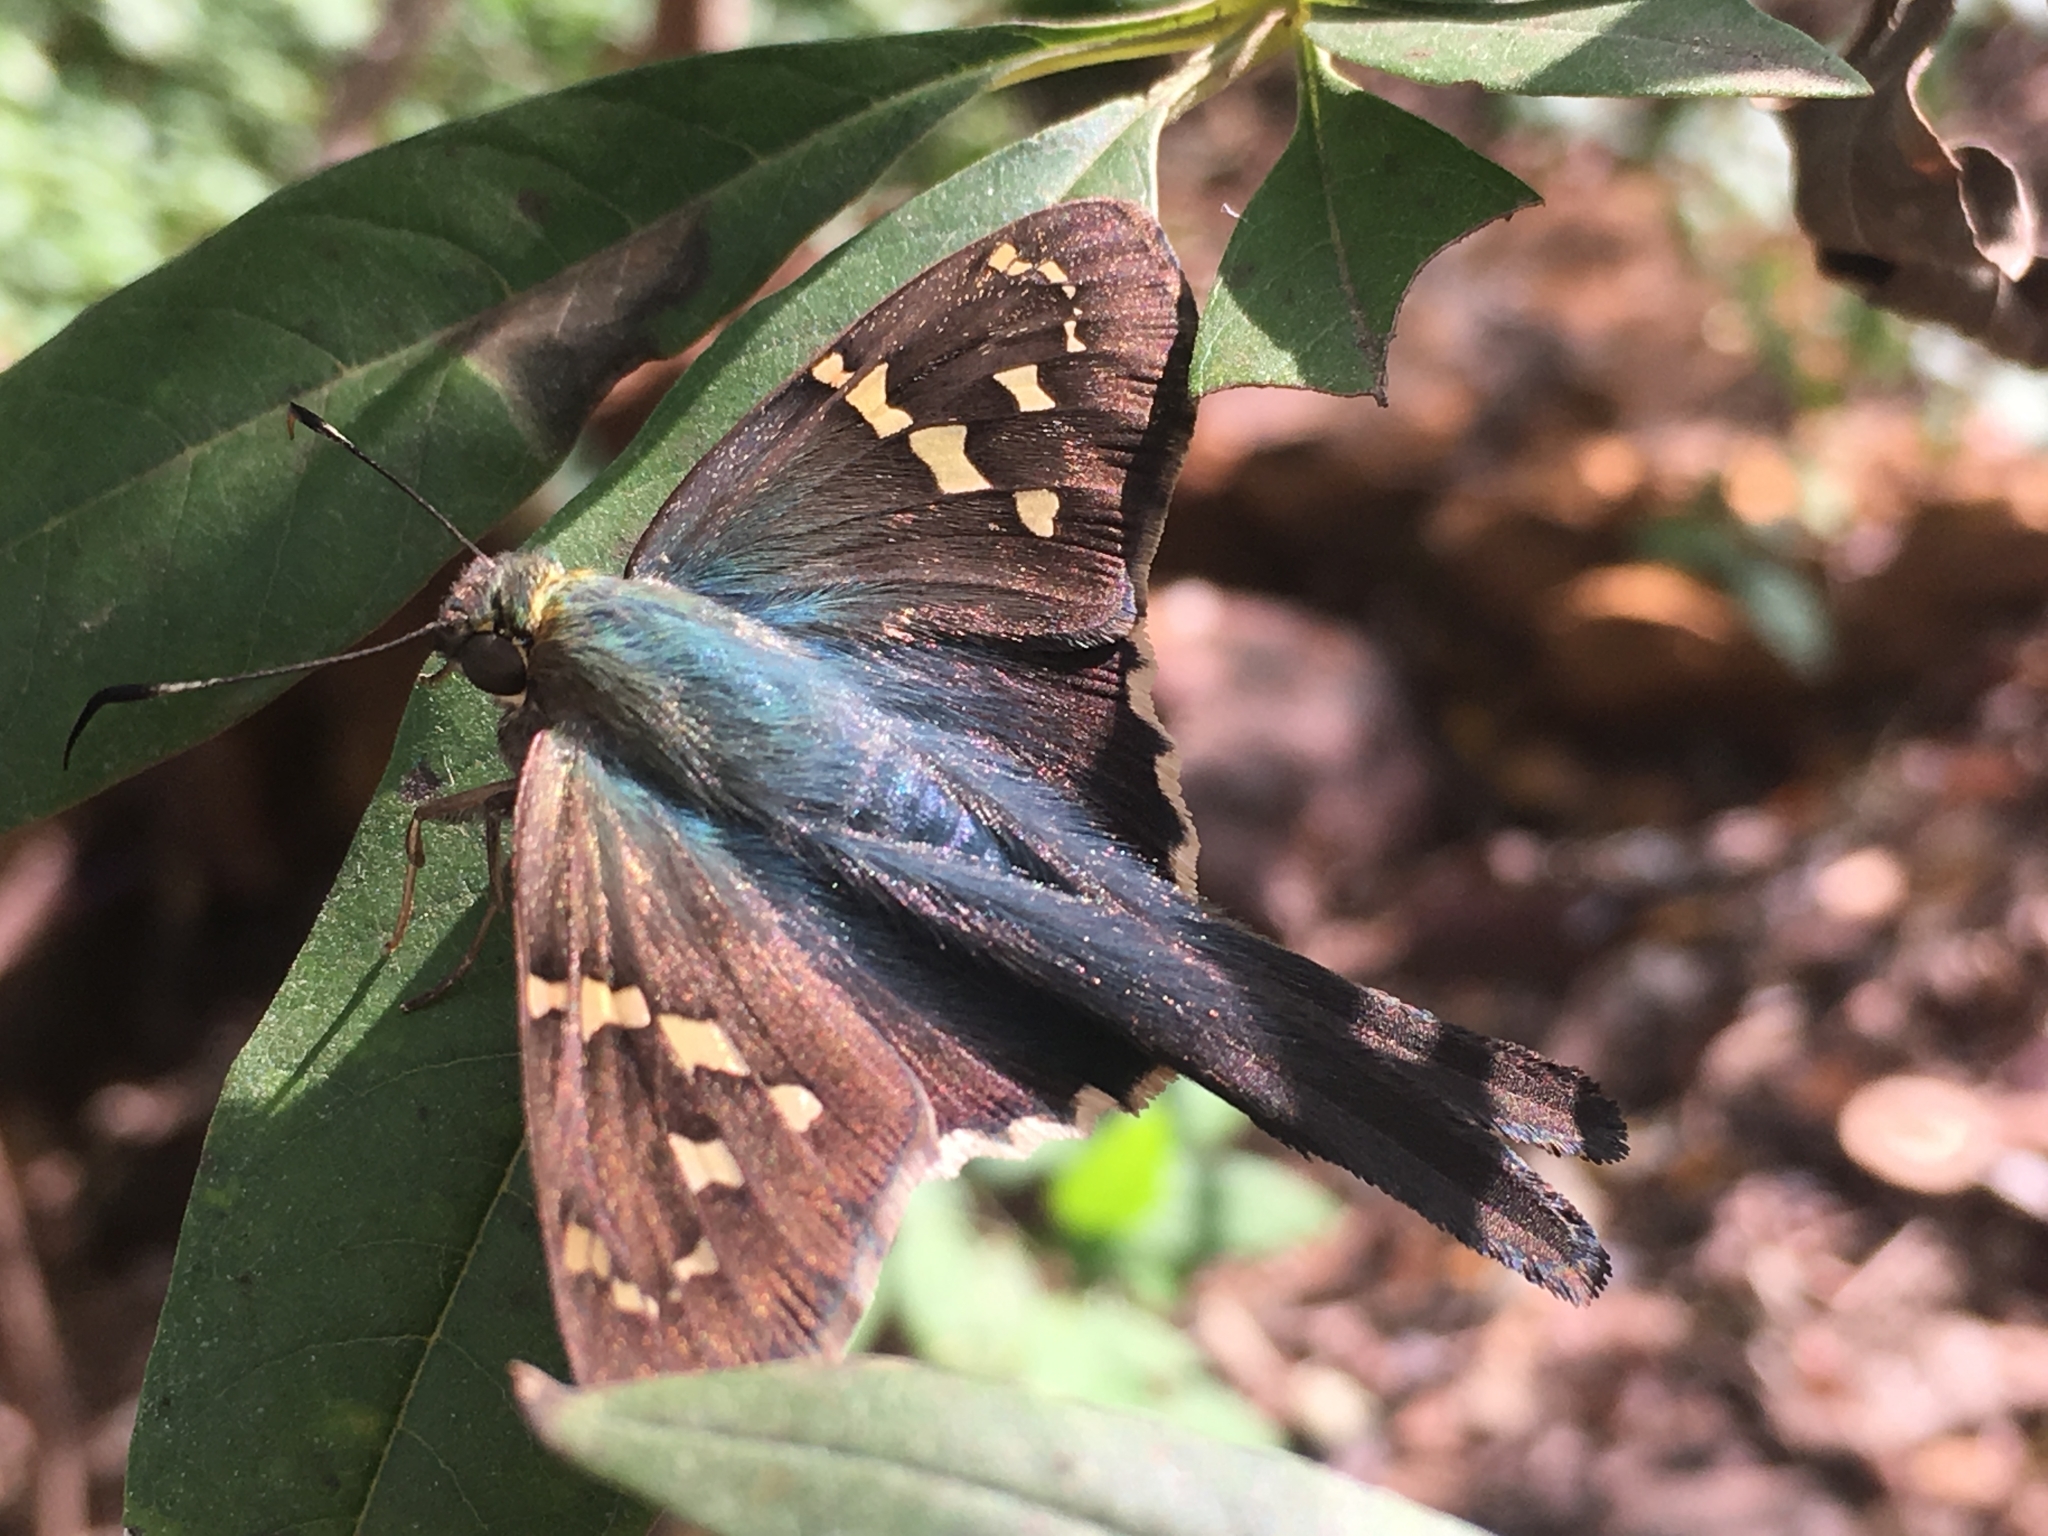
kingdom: Animalia
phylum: Arthropoda
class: Insecta
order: Lepidoptera
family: Hesperiidae
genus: Urbanus
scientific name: Urbanus proteus
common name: Long-tailed skipper
